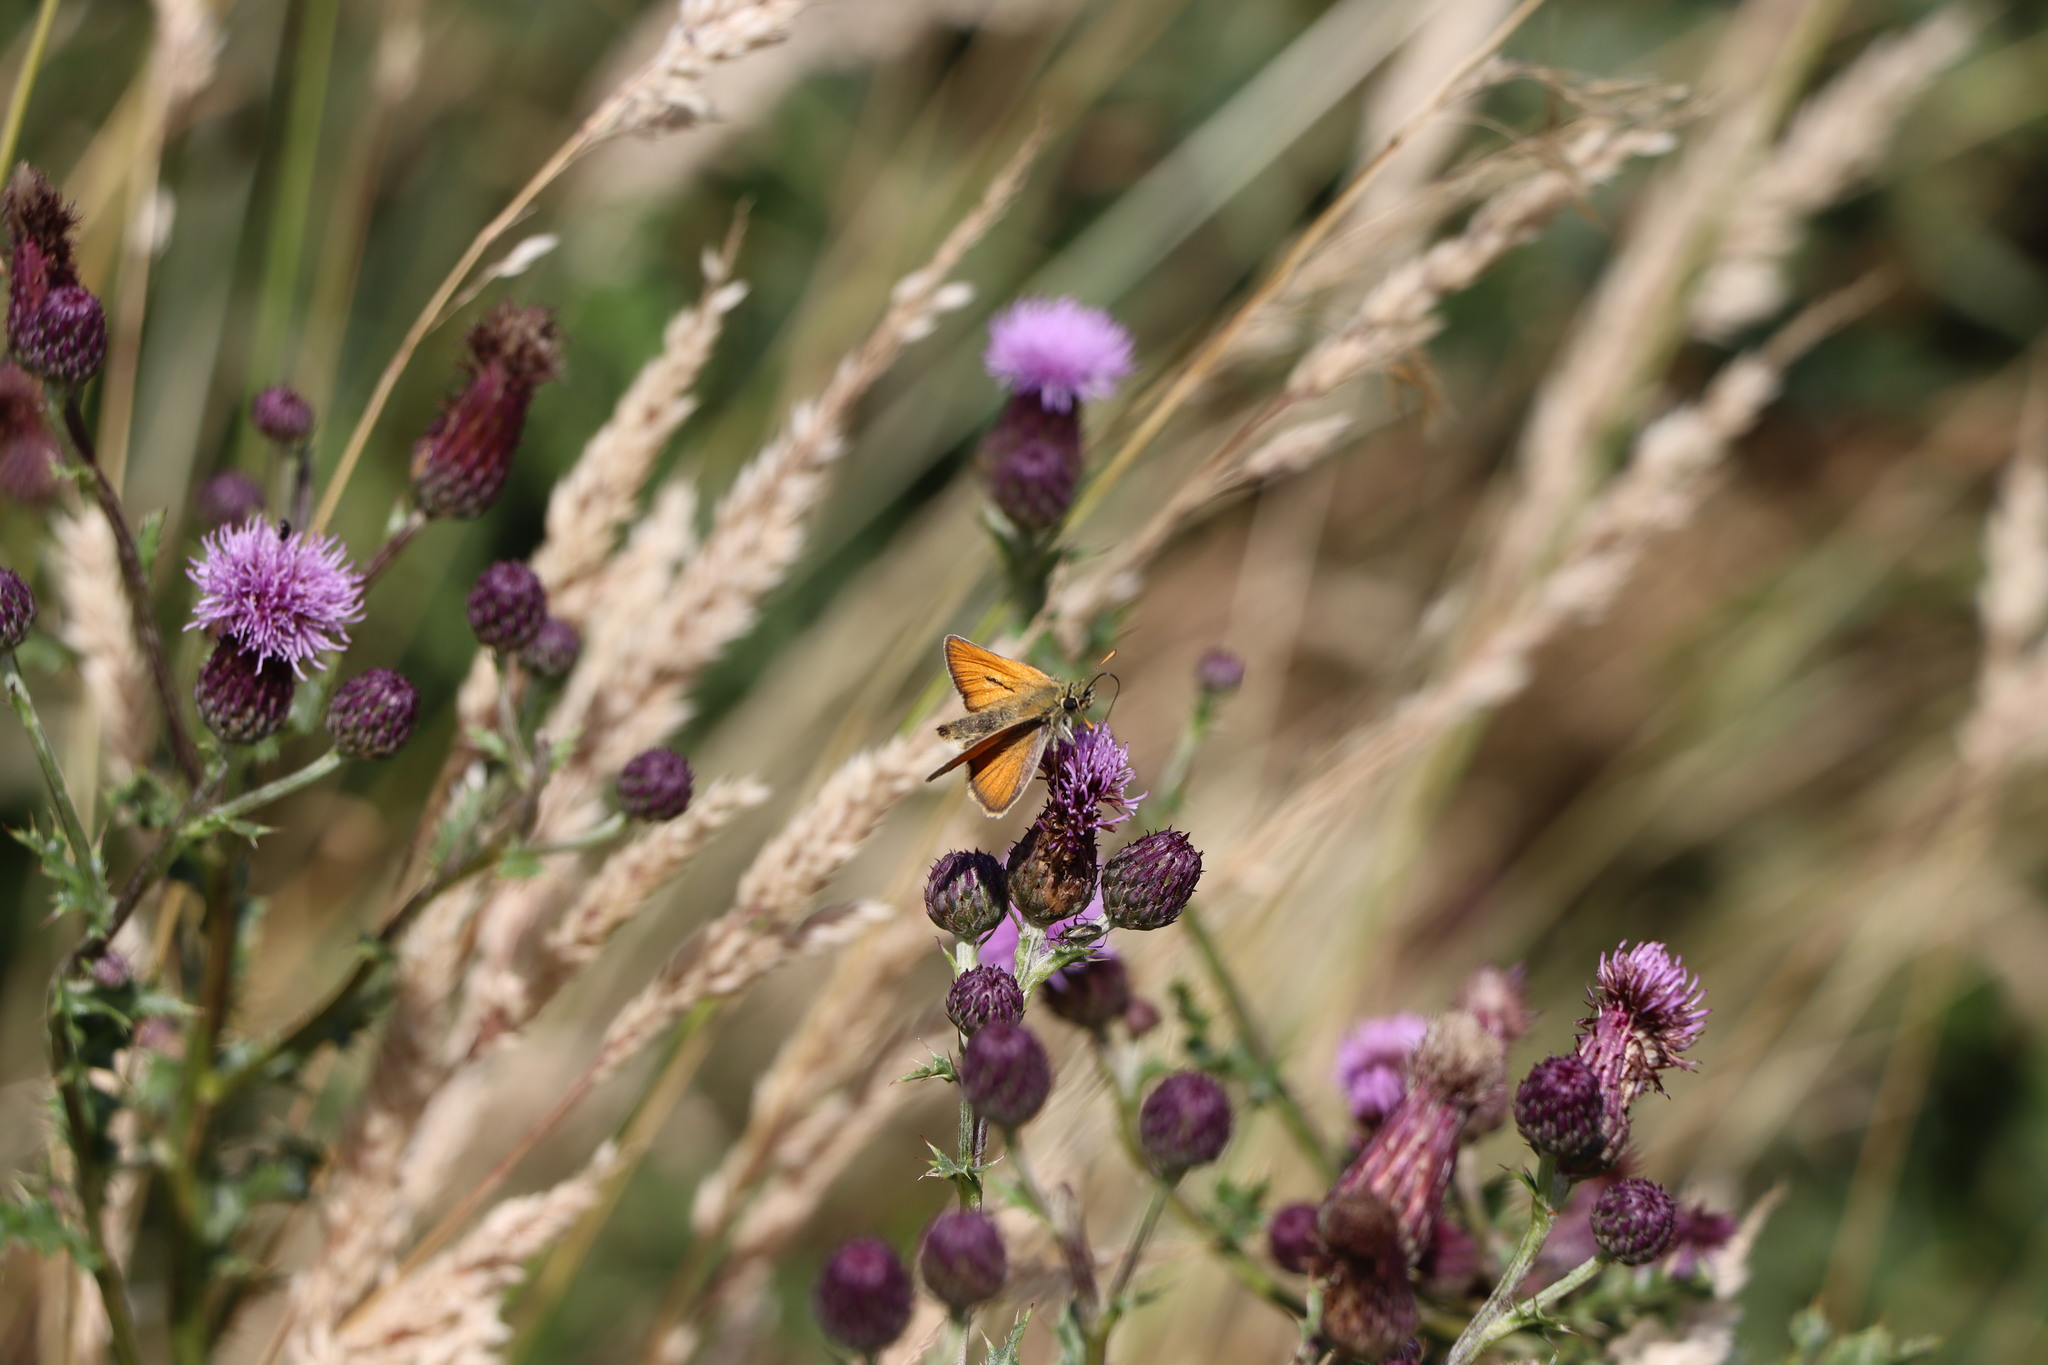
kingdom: Animalia
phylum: Arthropoda
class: Insecta
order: Lepidoptera
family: Hesperiidae
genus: Thymelicus
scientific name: Thymelicus sylvestris
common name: Small skipper
